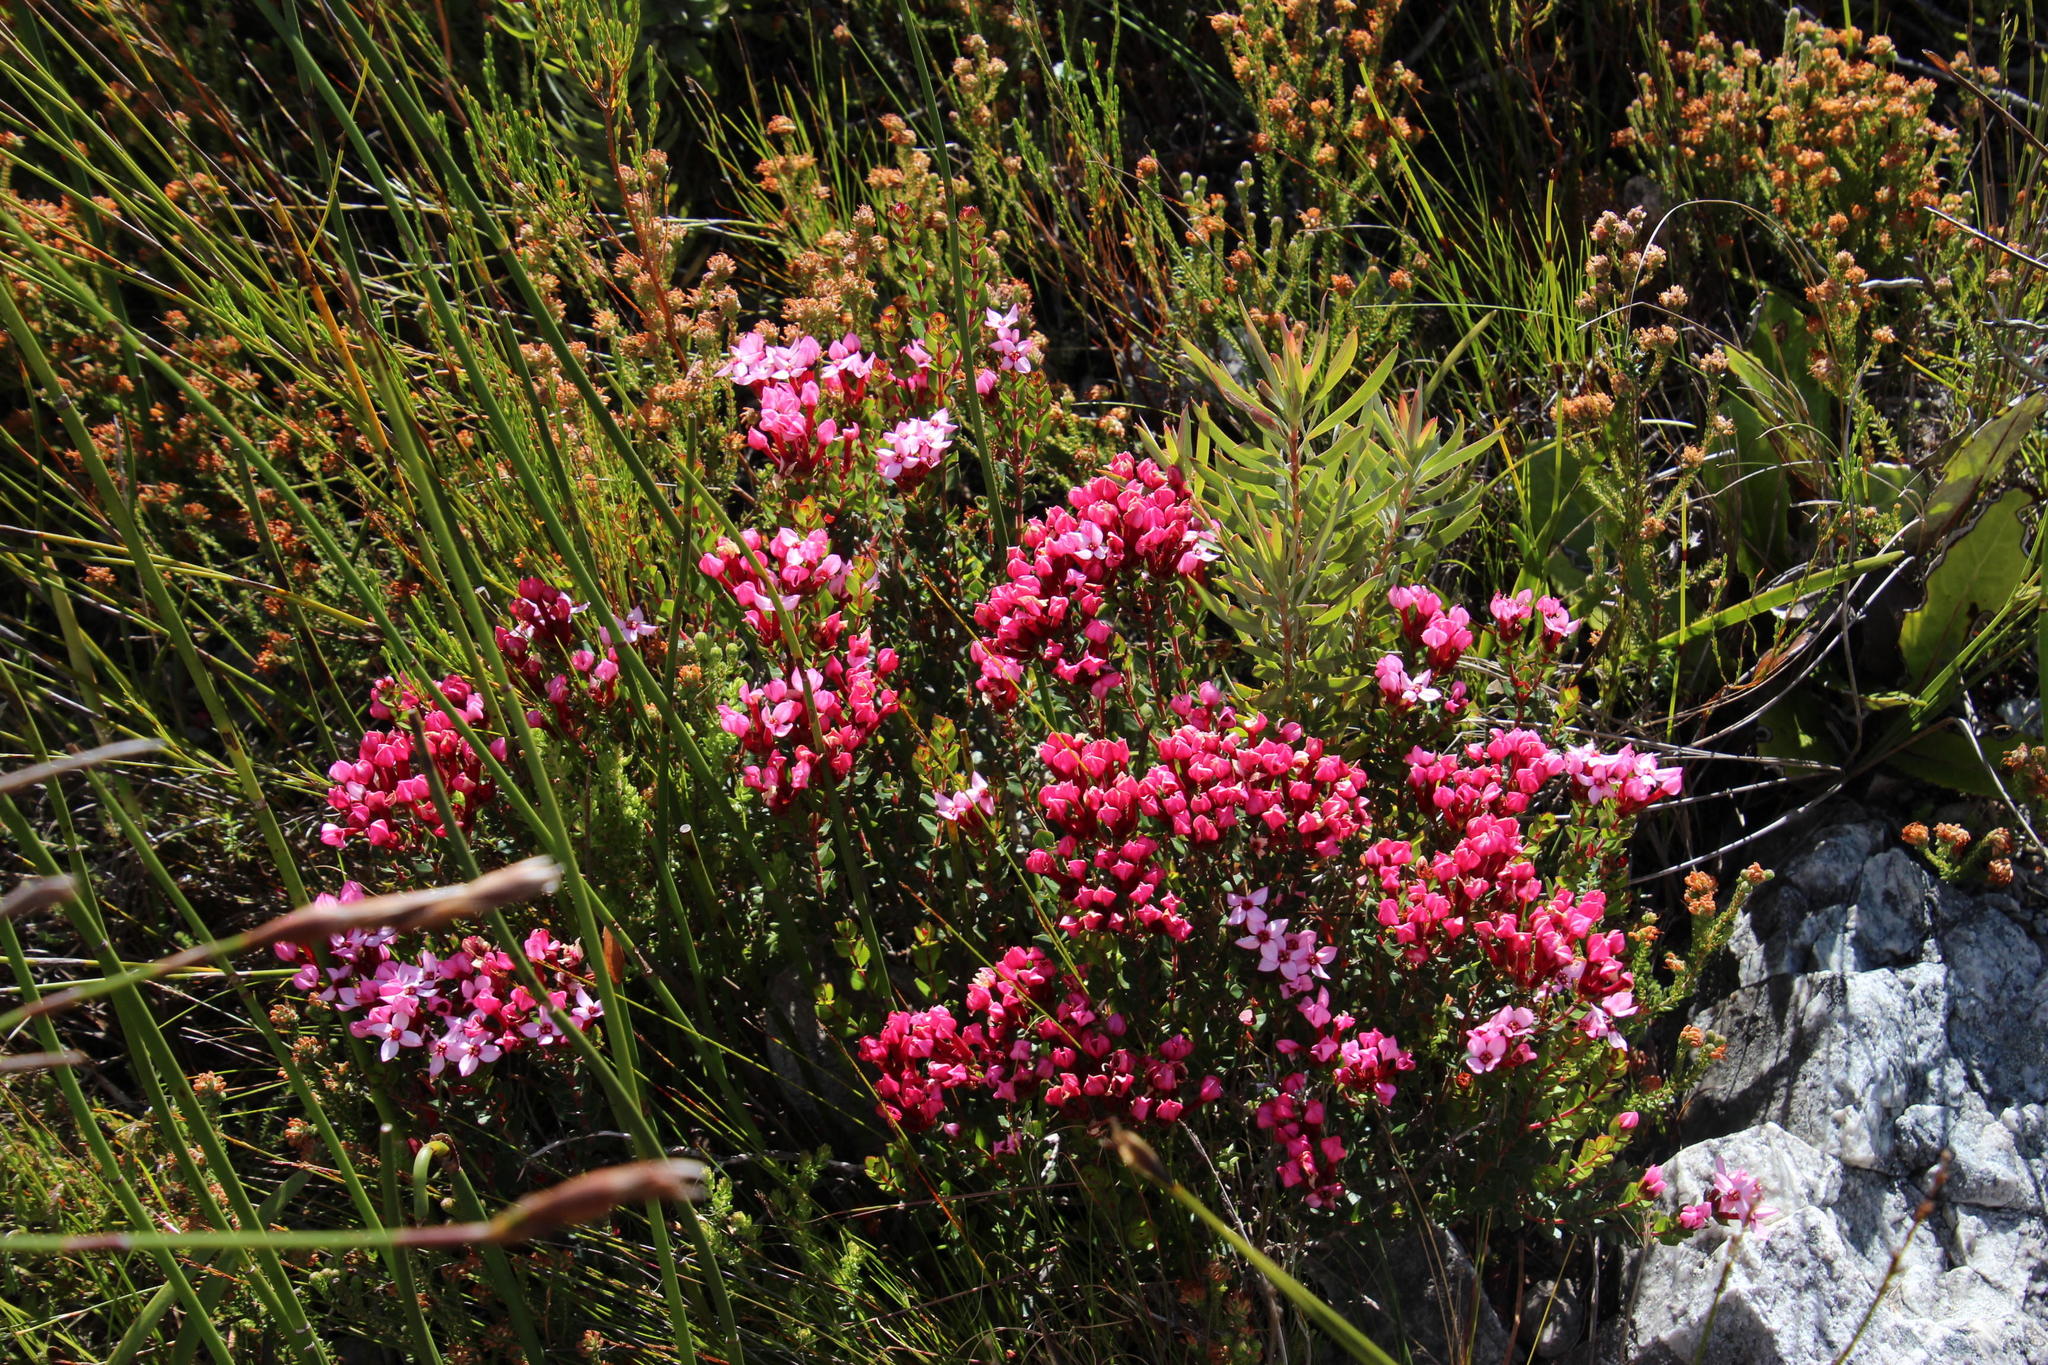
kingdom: Plantae
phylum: Tracheophyta
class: Magnoliopsida
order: Myrtales
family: Penaeaceae
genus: Brachysiphon
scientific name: Brachysiphon acutus
